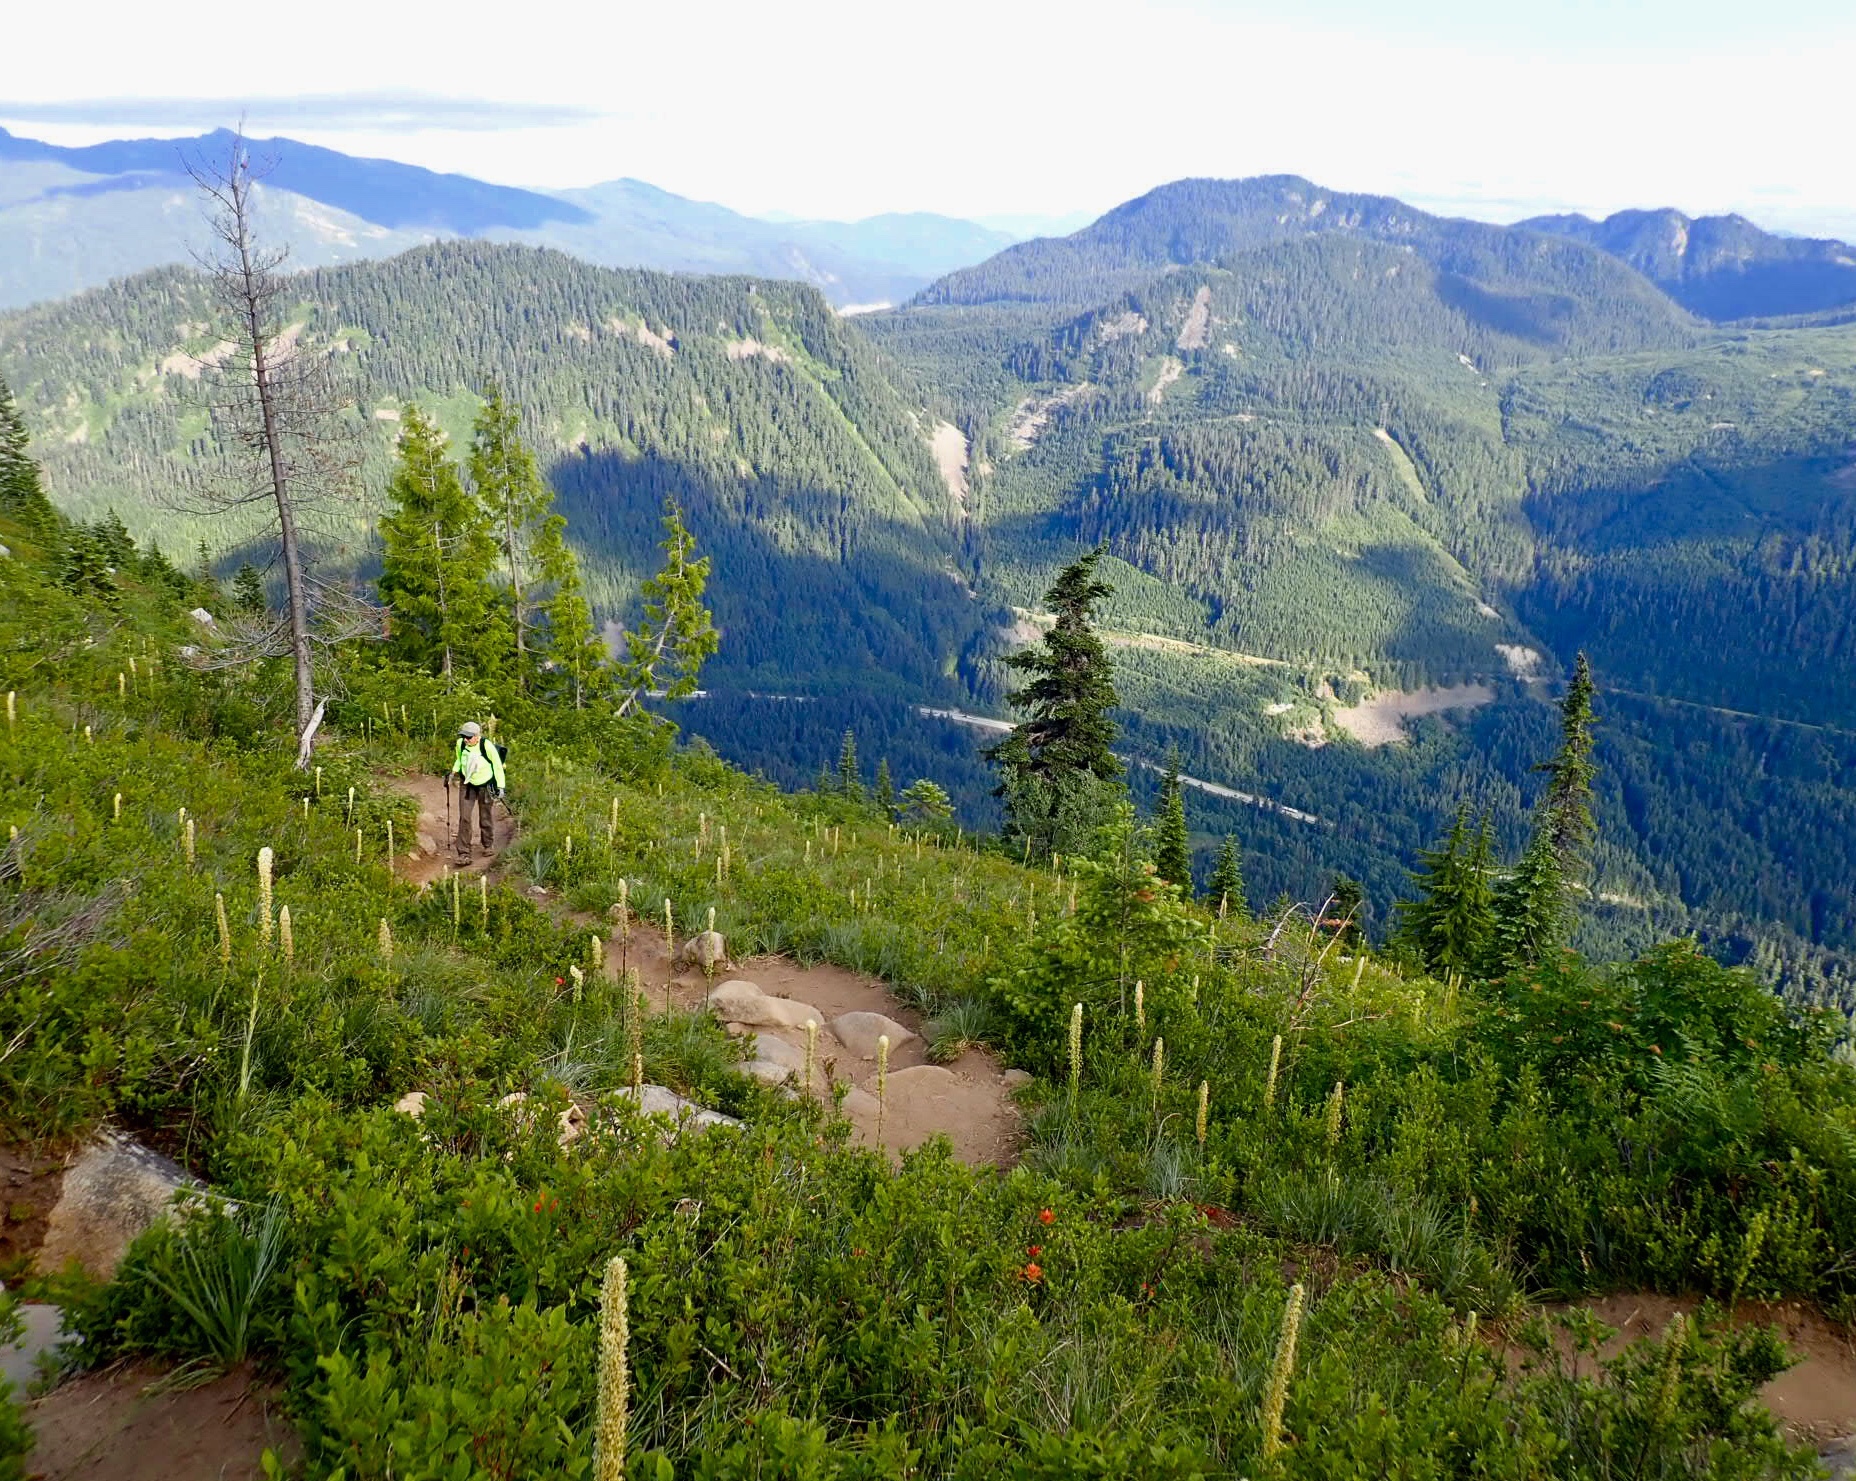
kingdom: Plantae
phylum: Tracheophyta
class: Liliopsida
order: Liliales
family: Melanthiaceae
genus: Xerophyllum
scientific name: Xerophyllum tenax
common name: Bear-grass
